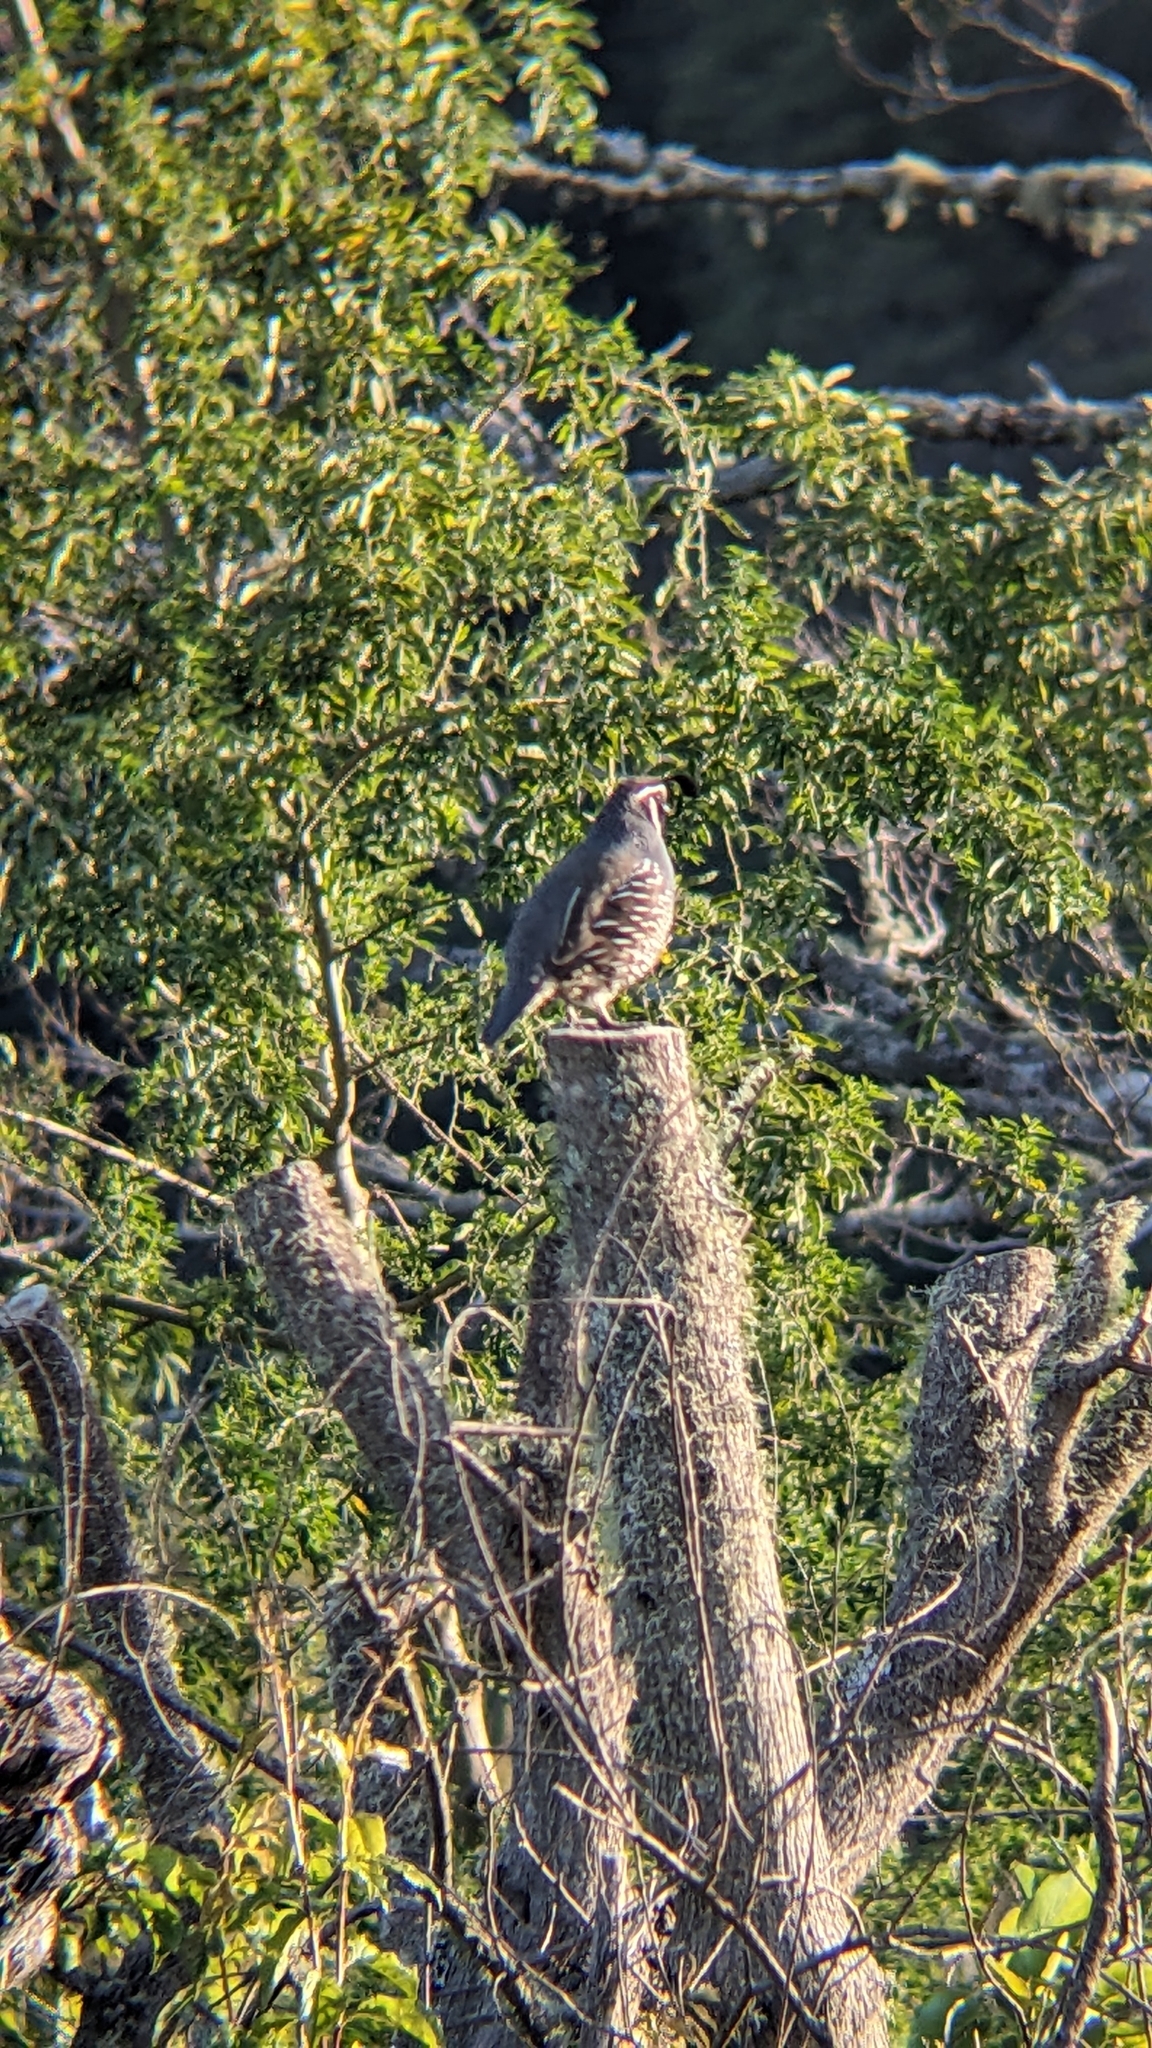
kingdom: Animalia
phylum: Chordata
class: Aves
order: Galliformes
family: Odontophoridae
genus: Callipepla
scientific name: Callipepla californica
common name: California quail
